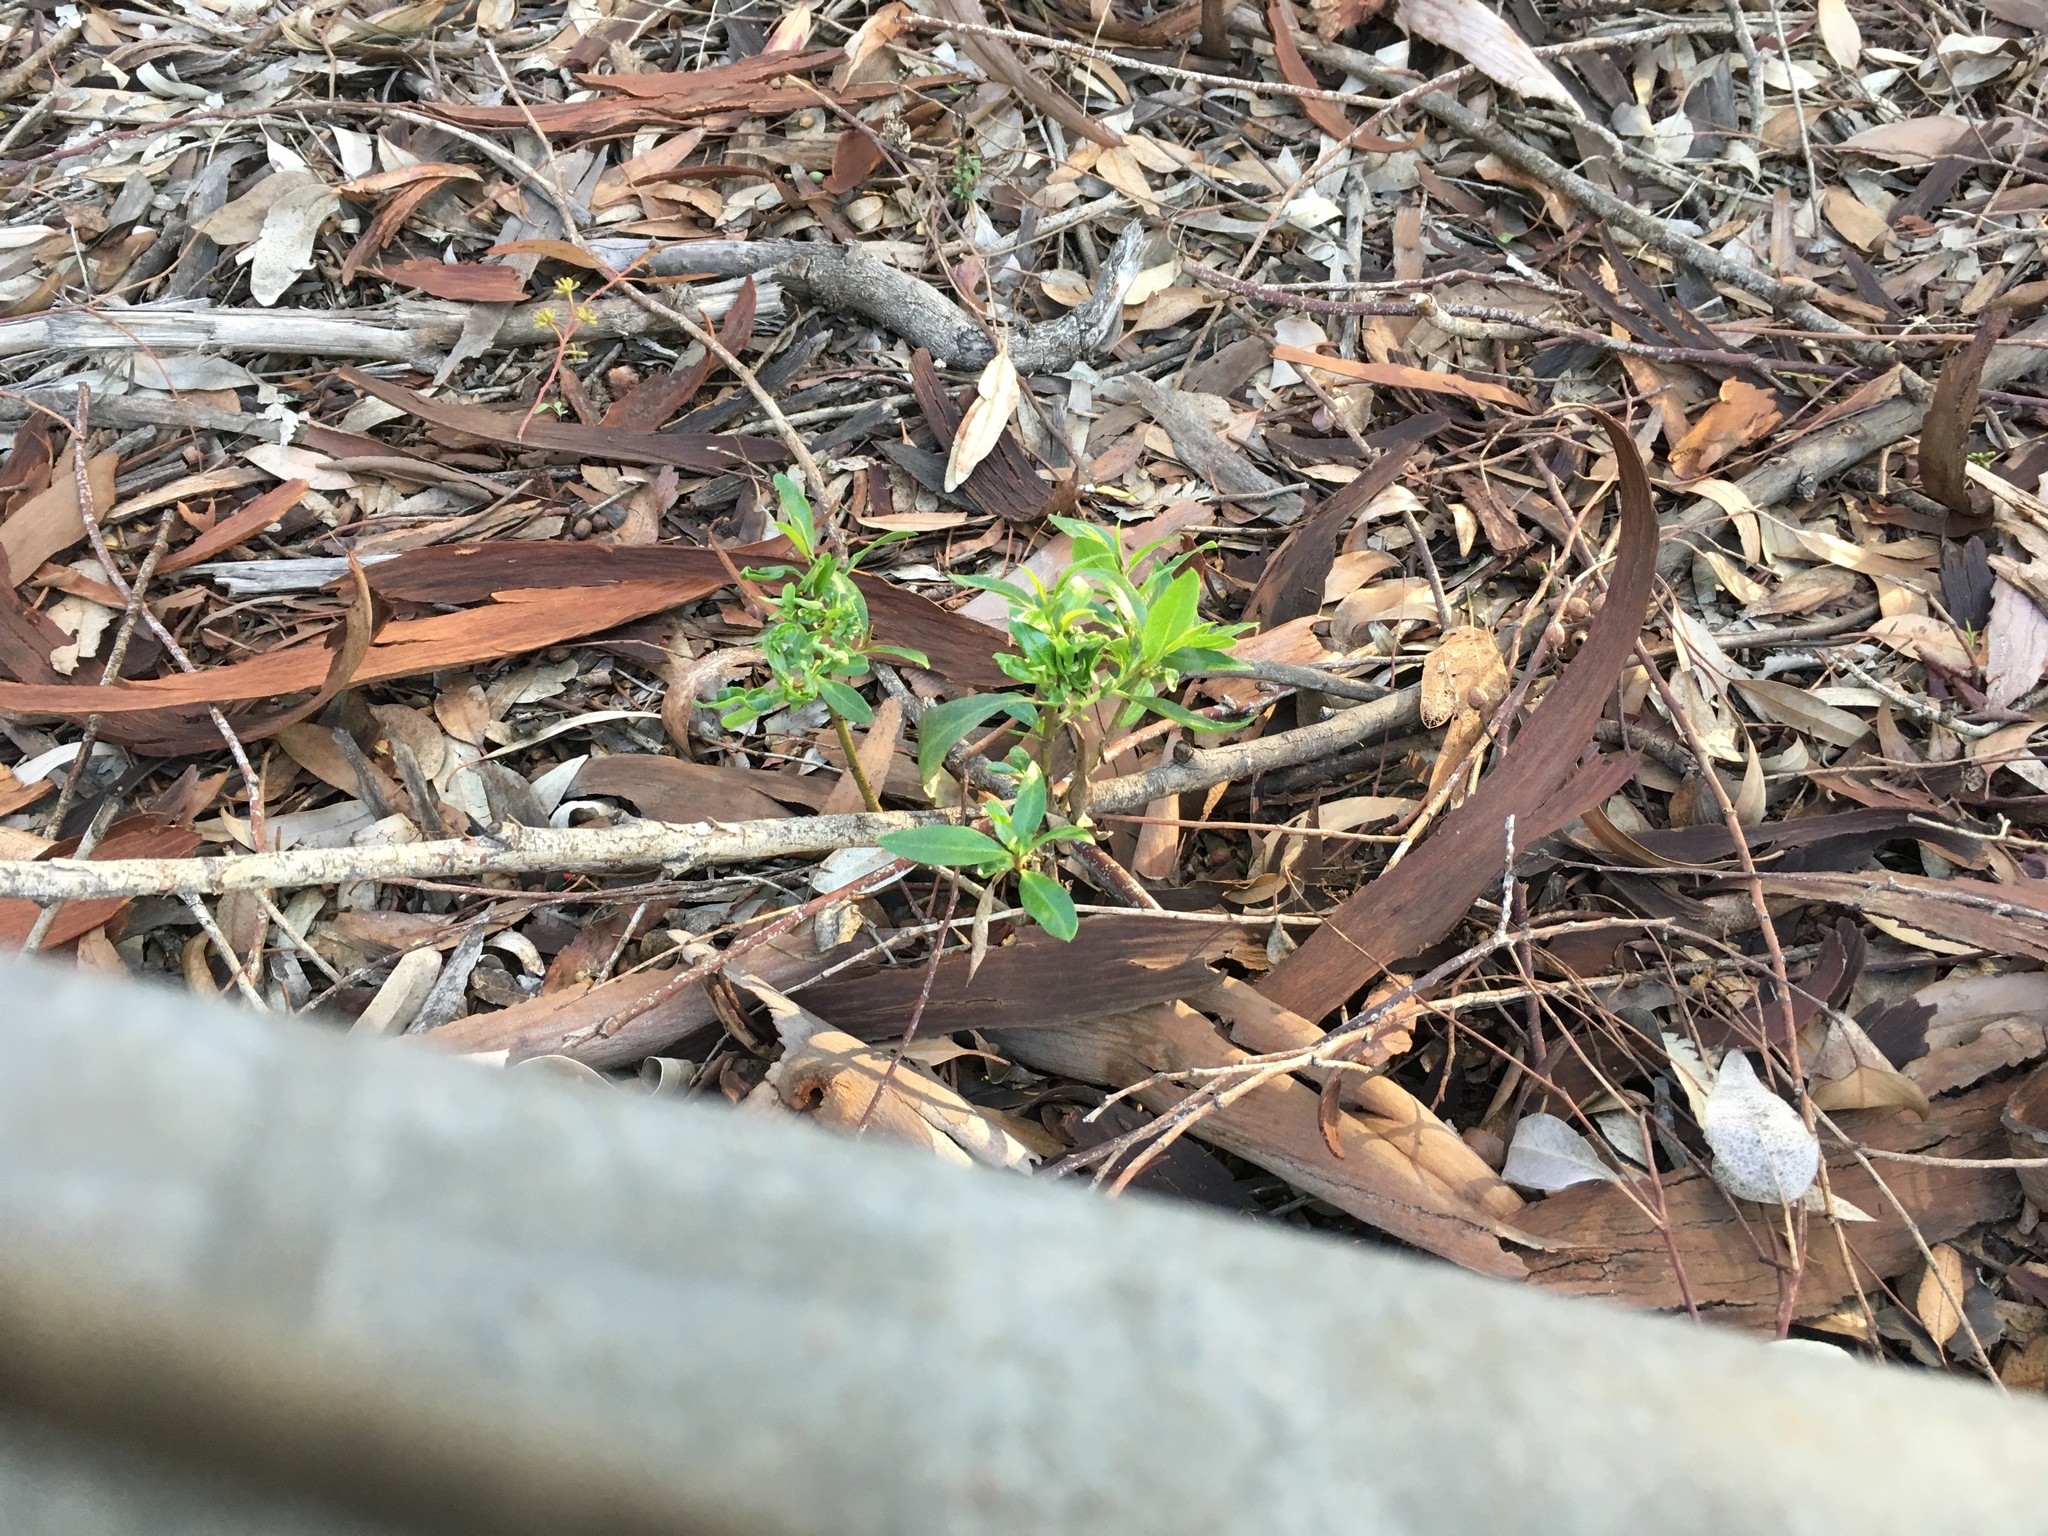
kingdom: Plantae
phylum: Tracheophyta
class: Magnoliopsida
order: Lamiales
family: Scrophulariaceae
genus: Myoporum
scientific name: Myoporum laetum
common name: Ngaio tree
